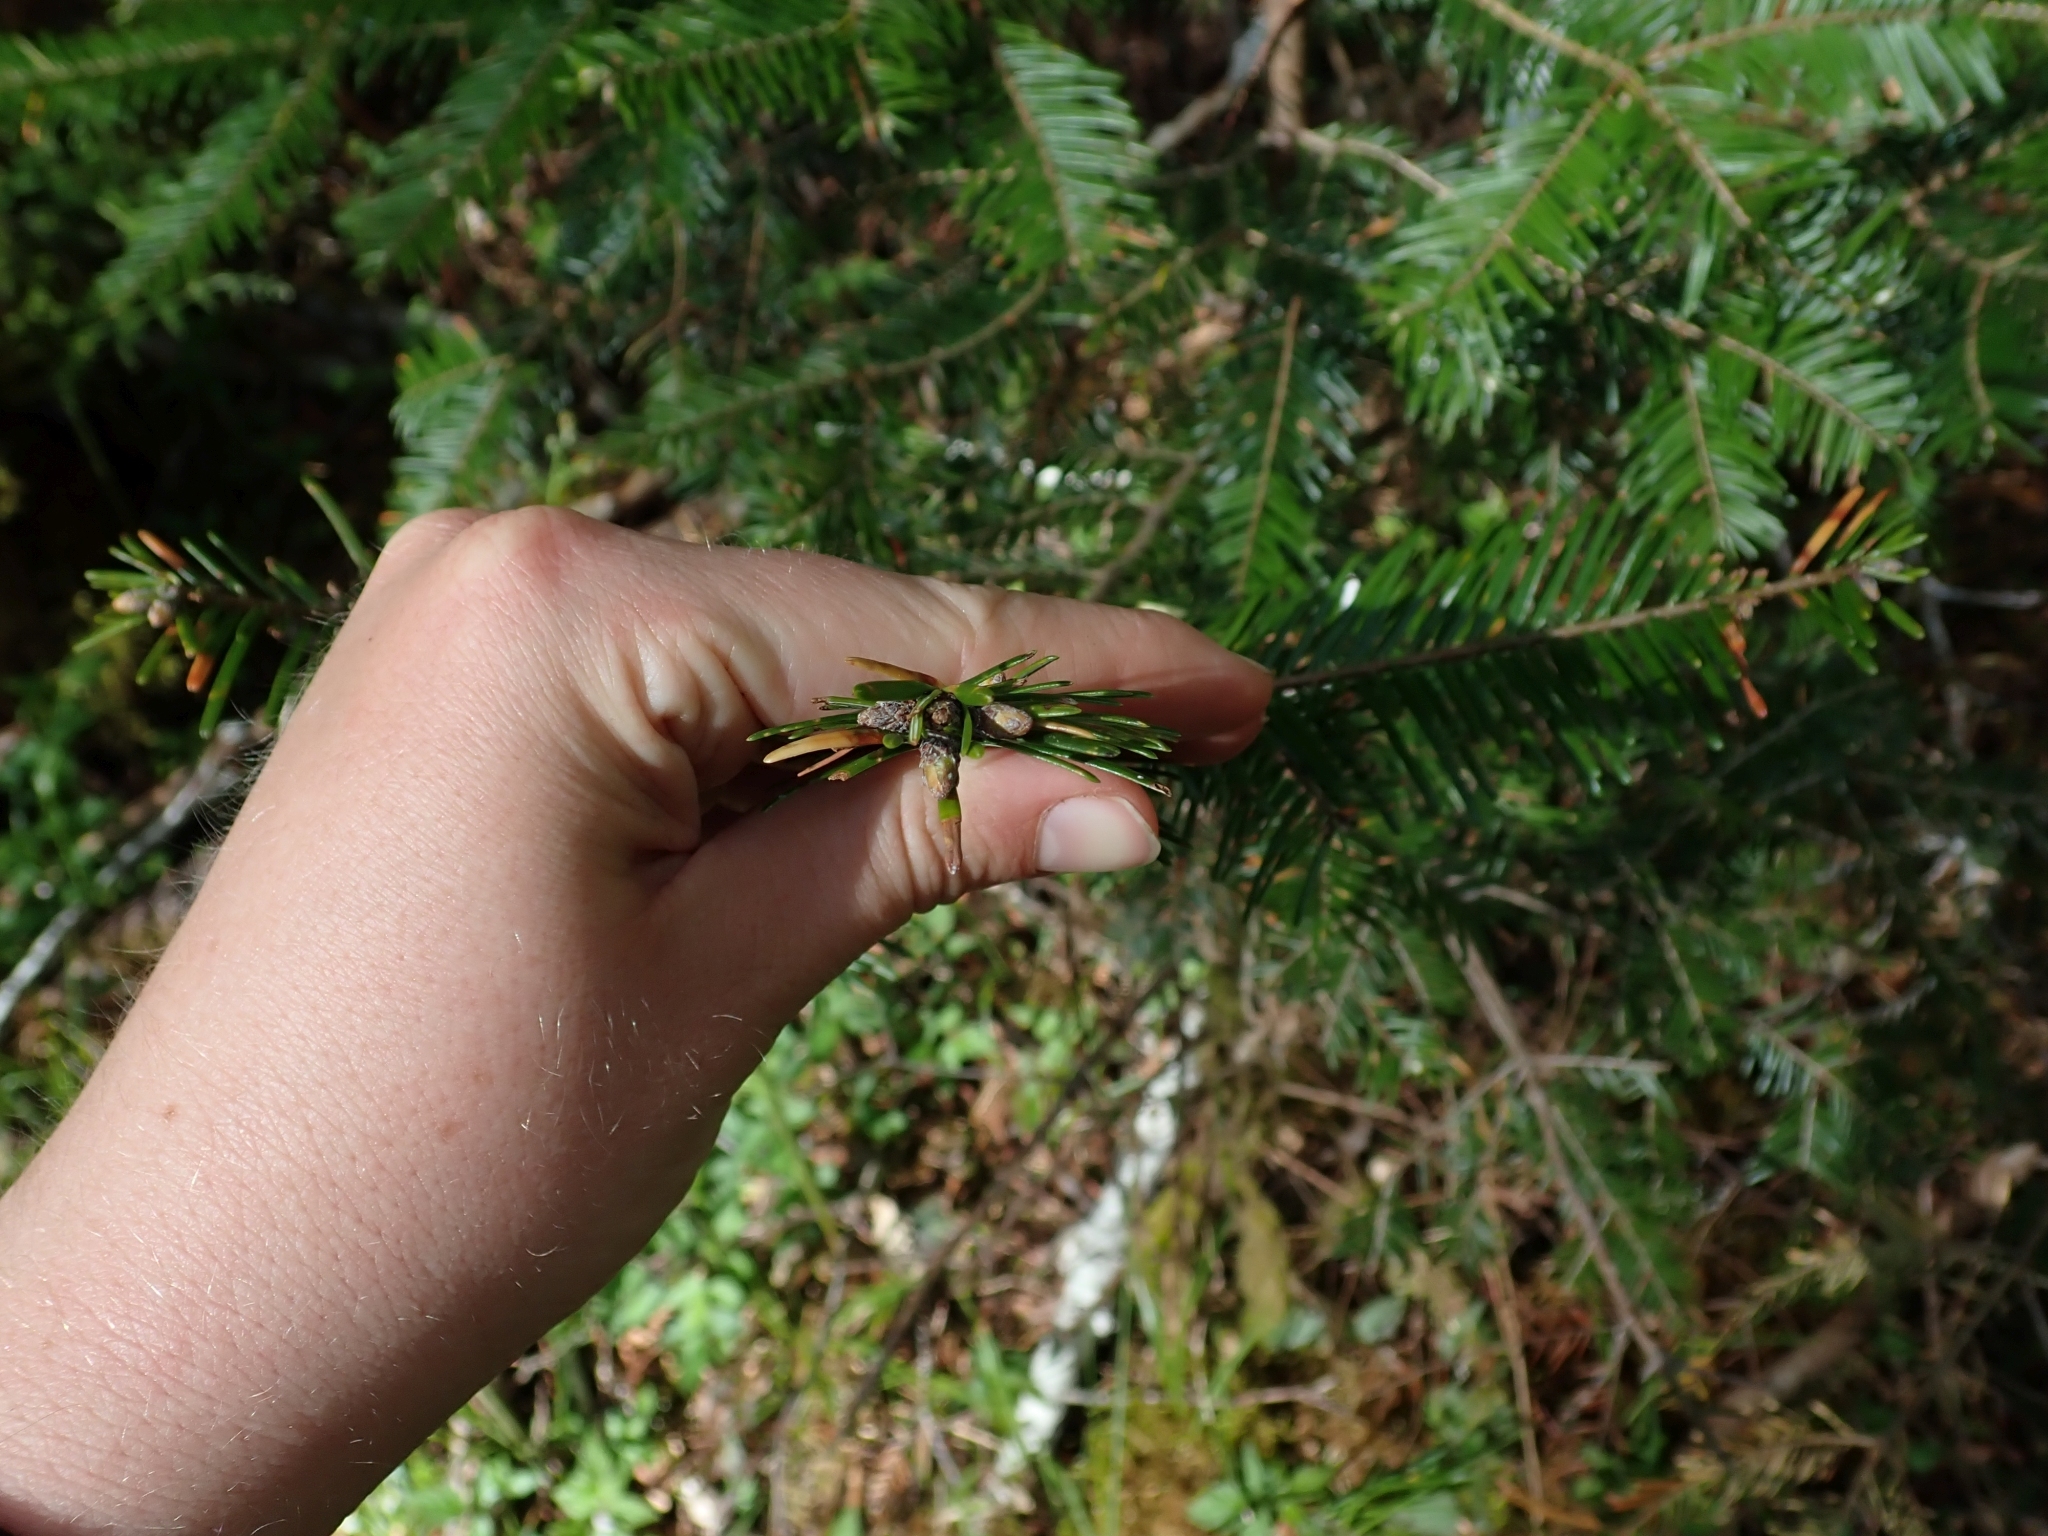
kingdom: Plantae
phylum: Tracheophyta
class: Pinopsida
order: Pinales
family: Pinaceae
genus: Abies
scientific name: Abies grandis
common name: Giant fir
